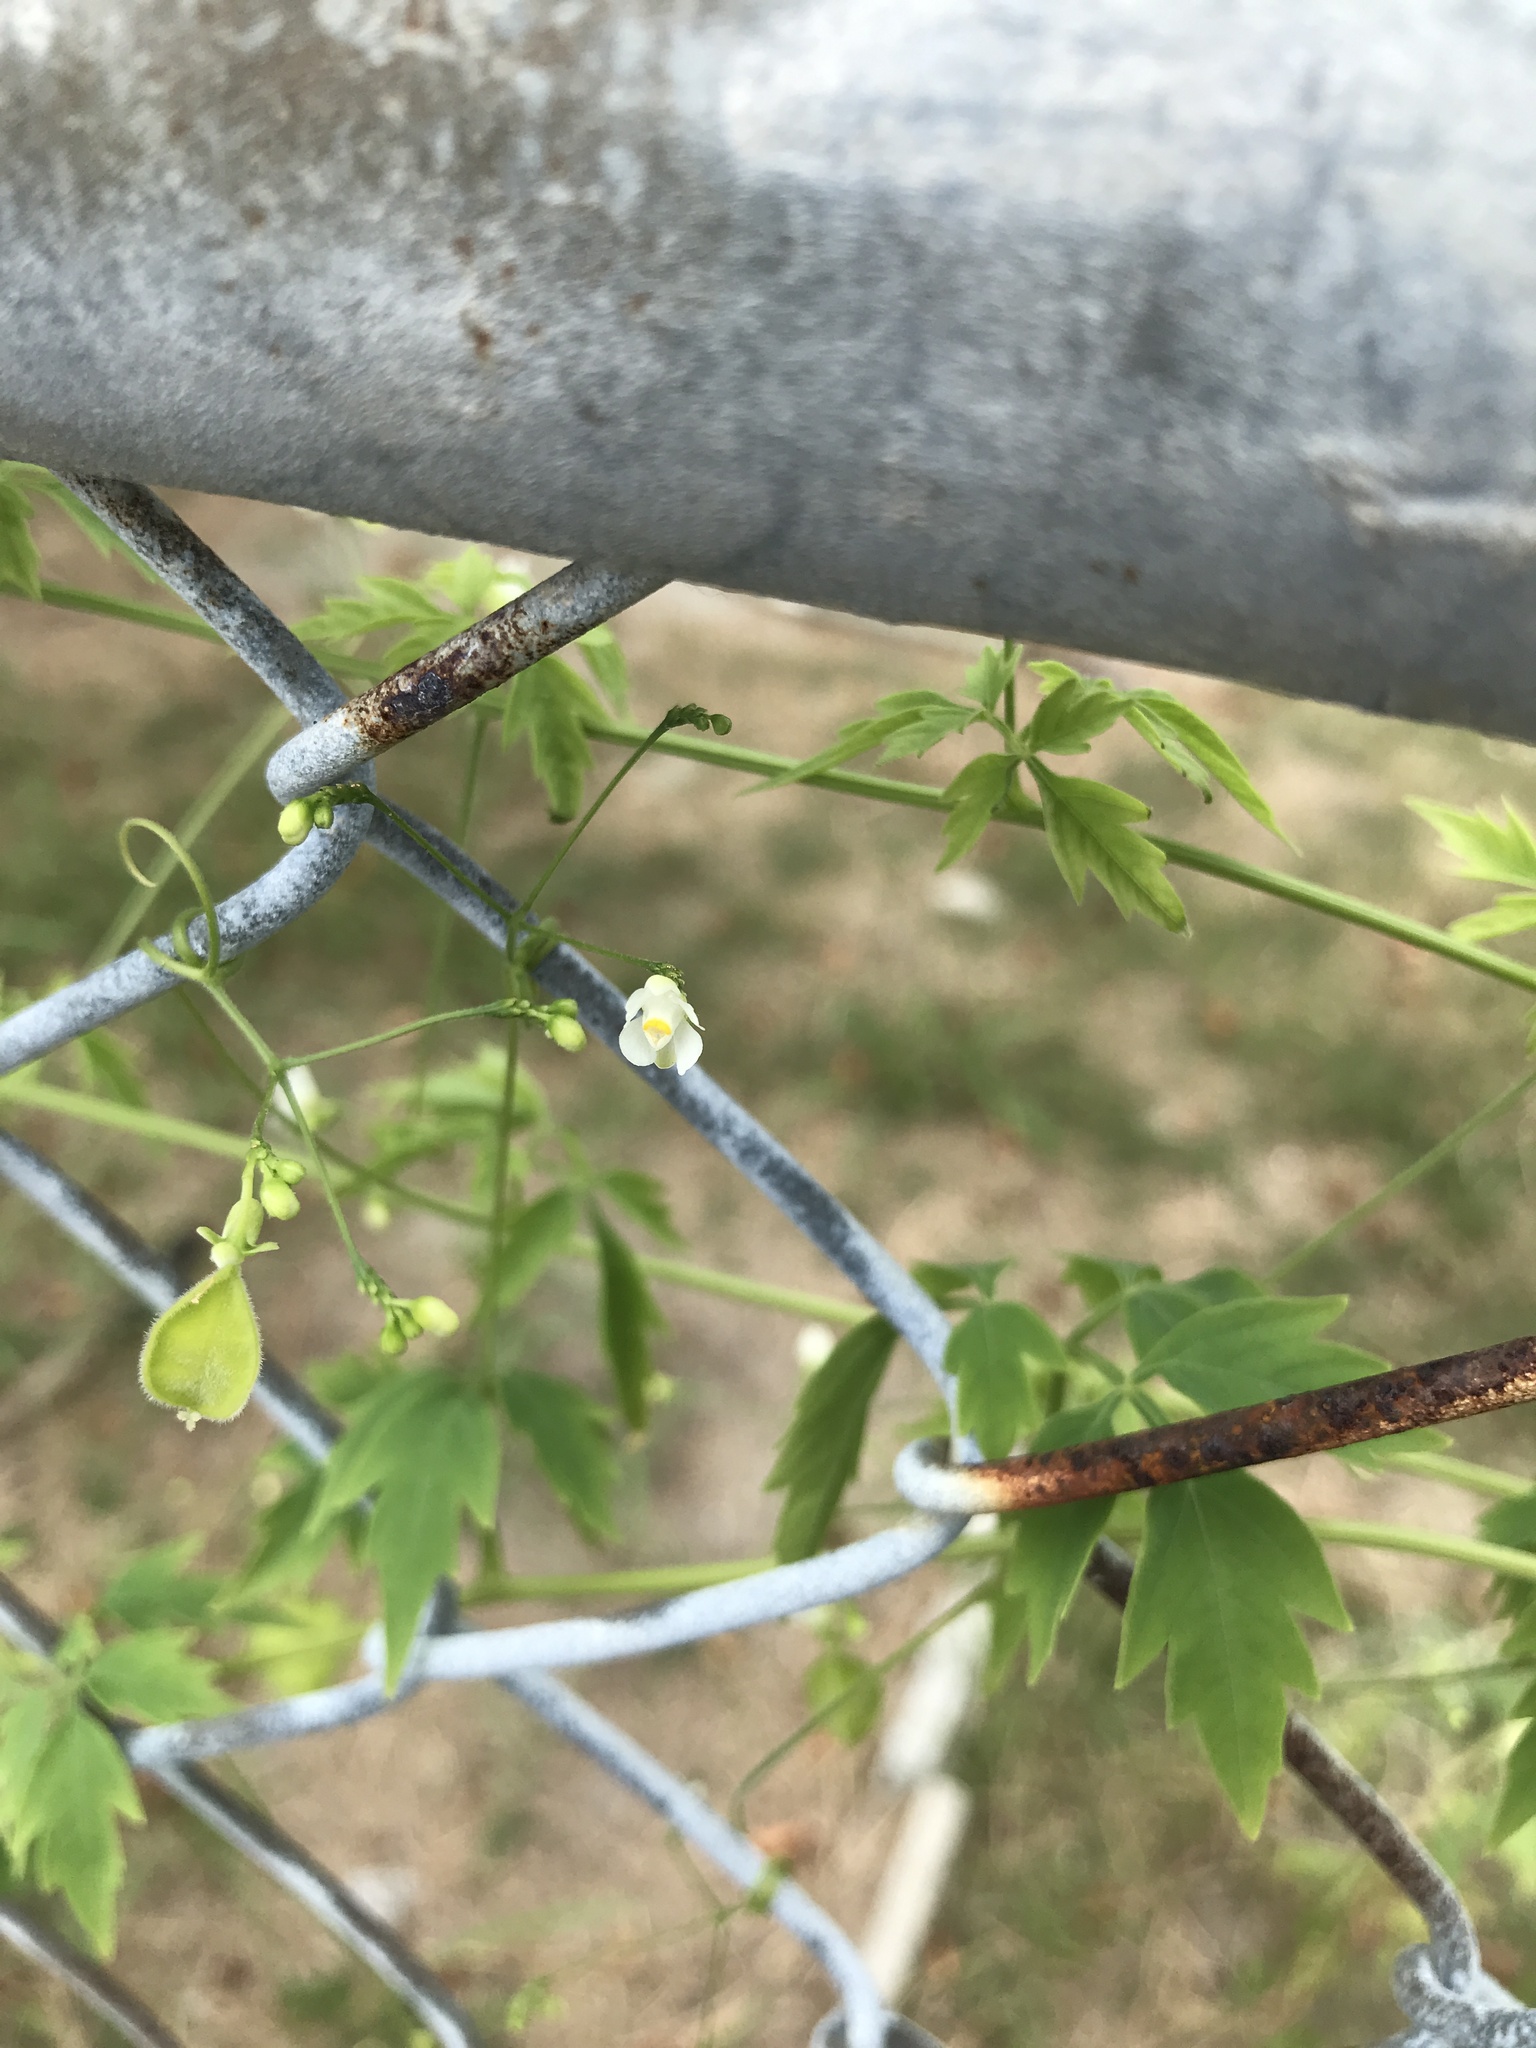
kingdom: Plantae
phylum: Tracheophyta
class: Magnoliopsida
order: Sapindales
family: Sapindaceae
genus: Cardiospermum
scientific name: Cardiospermum halicacabum
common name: Balloon vine
